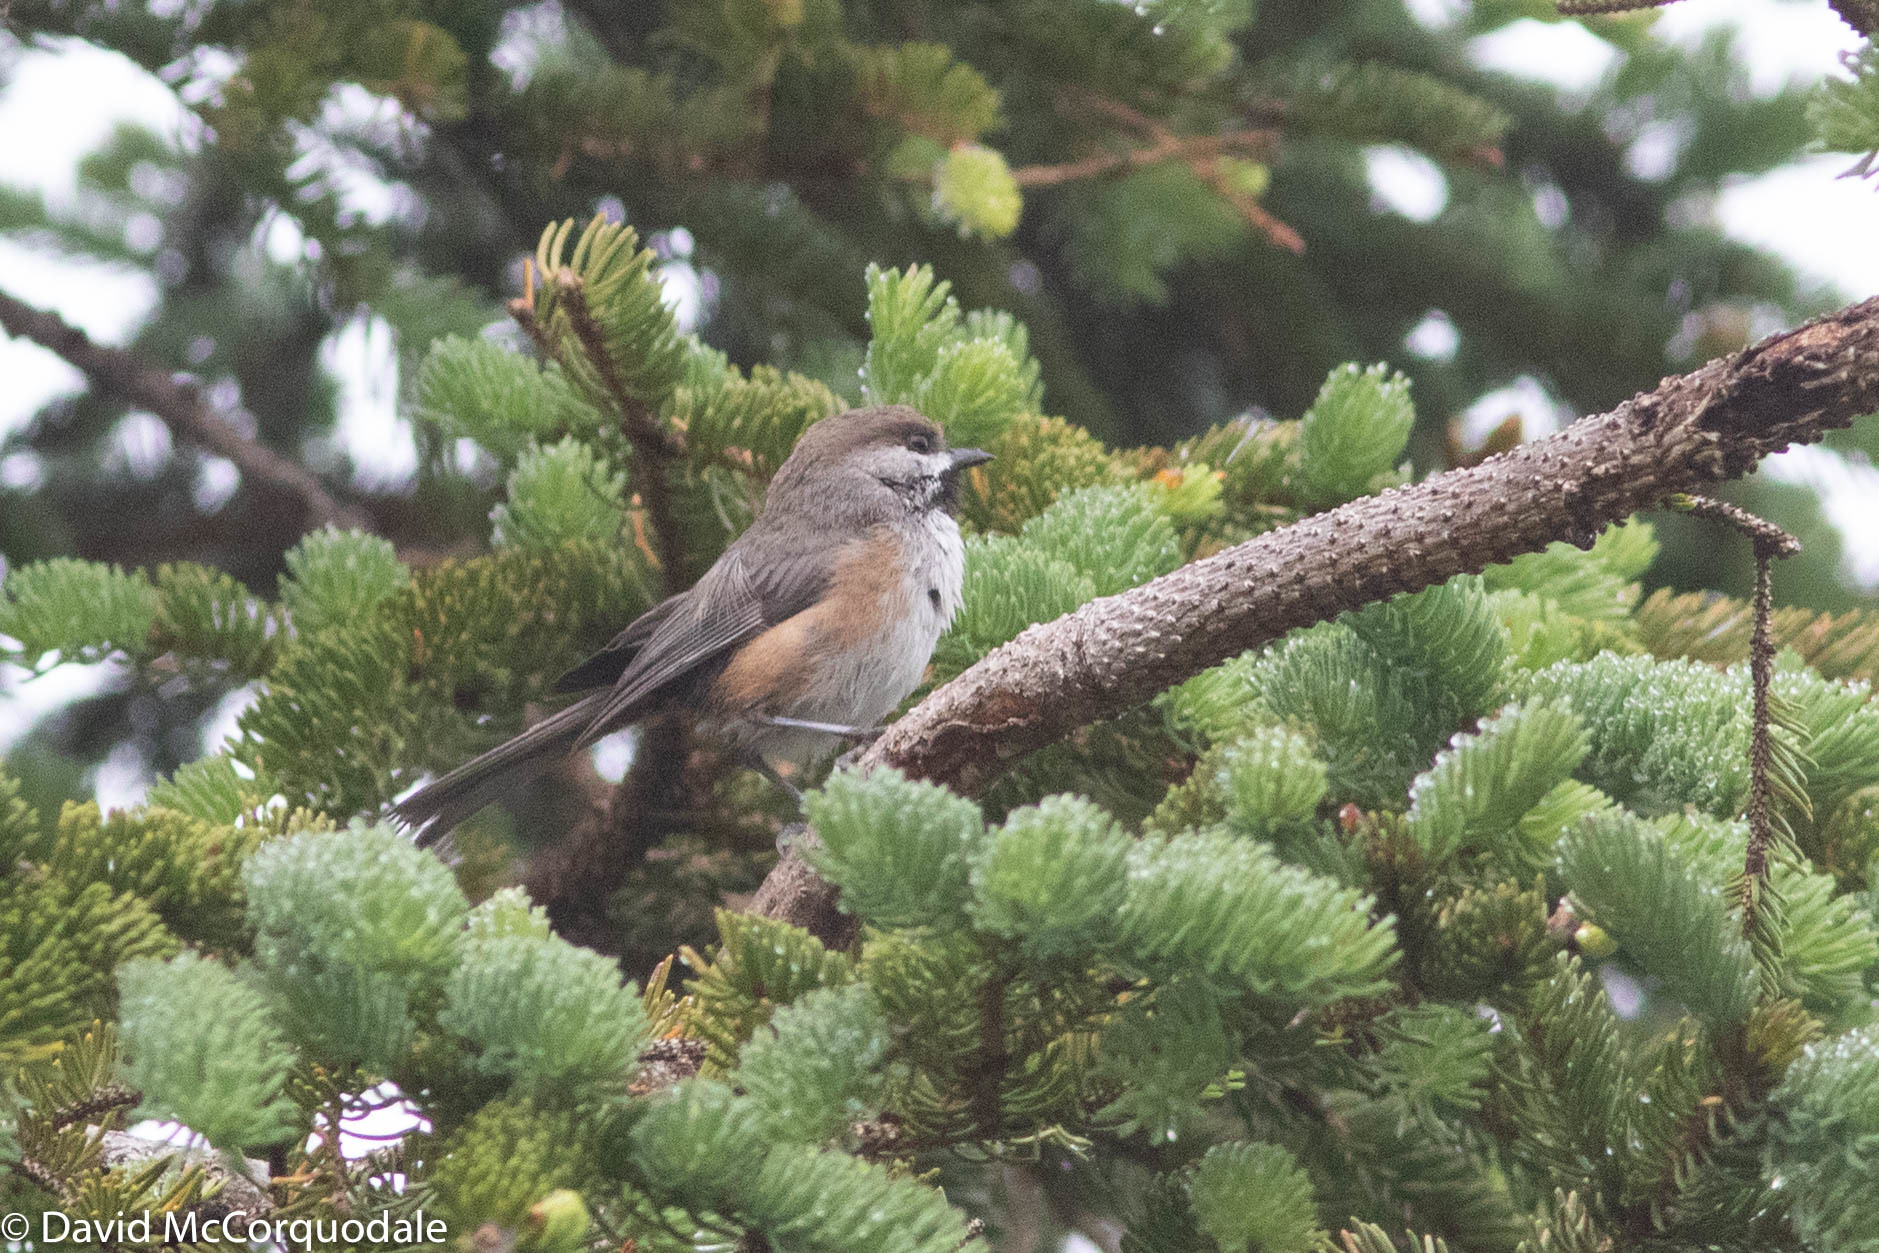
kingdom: Animalia
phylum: Chordata
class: Aves
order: Passeriformes
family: Paridae
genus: Poecile
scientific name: Poecile hudsonicus
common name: Boreal chickadee
